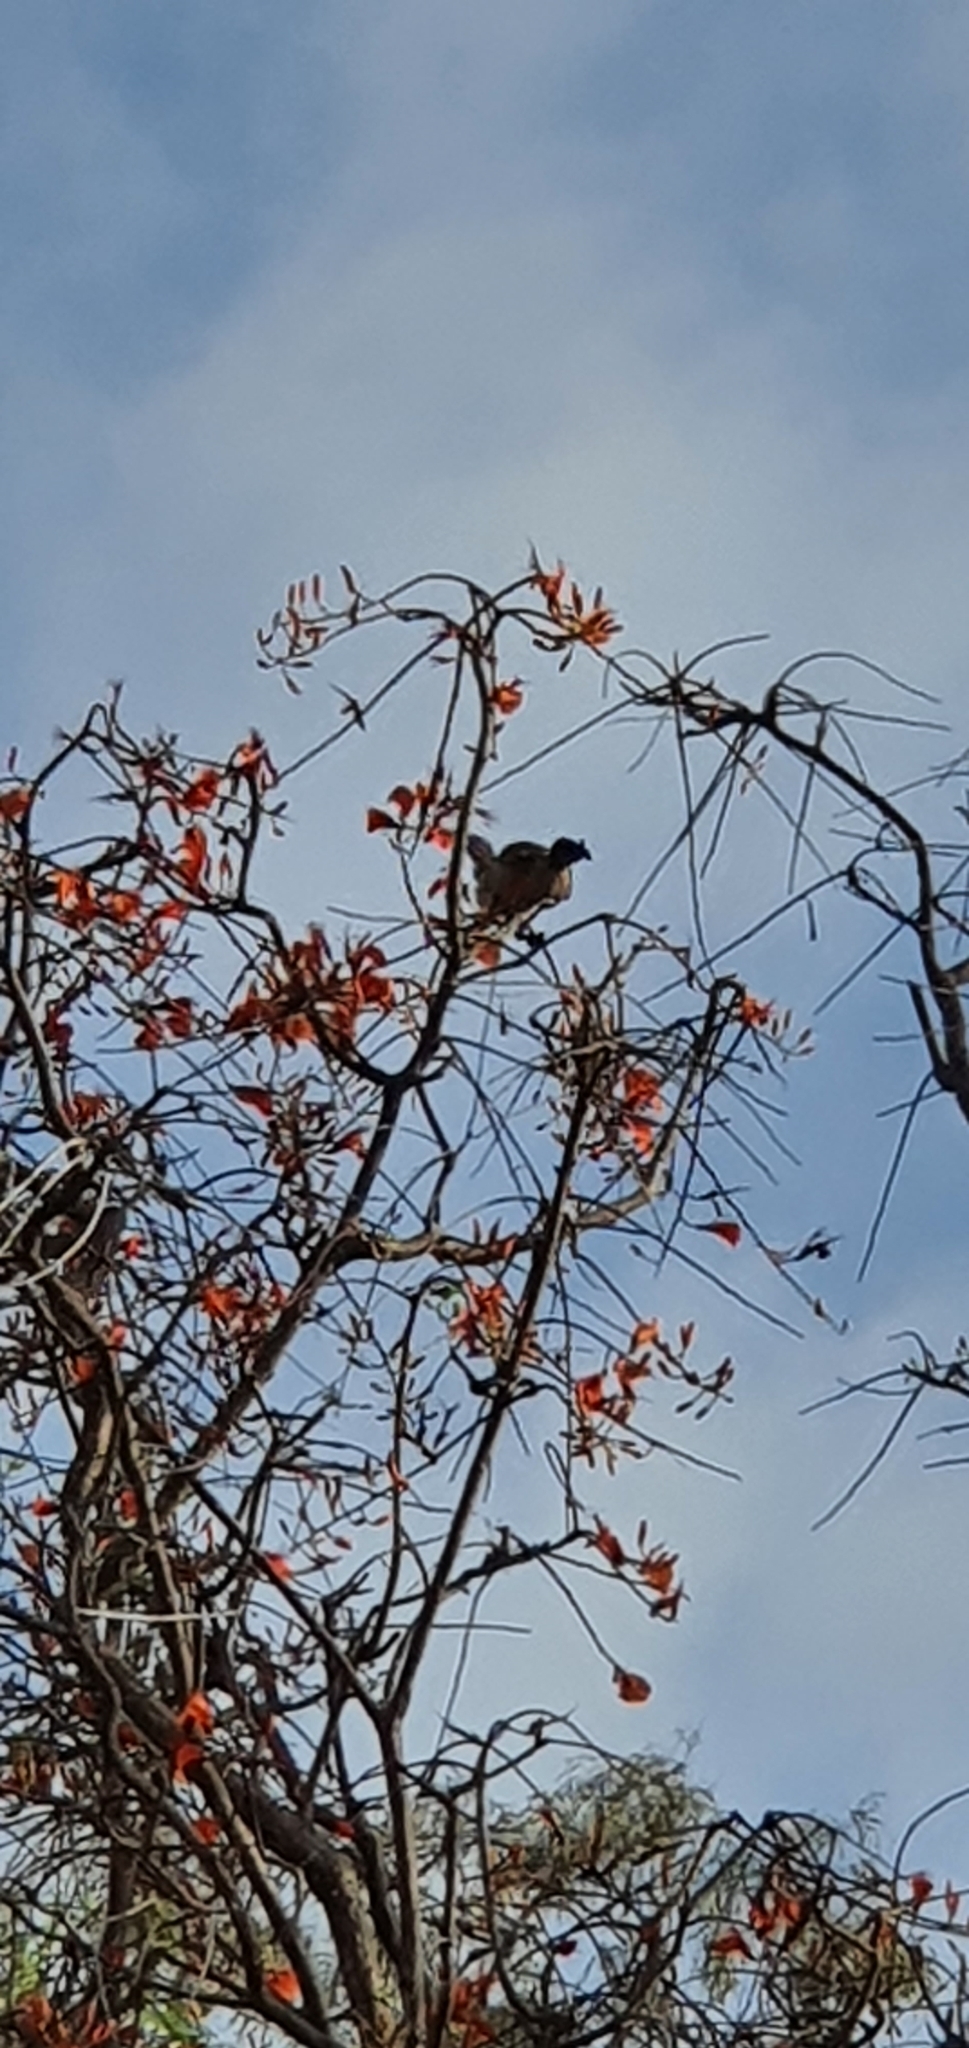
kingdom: Animalia
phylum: Chordata
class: Aves
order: Passeriformes
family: Meliphagidae
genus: Philemon
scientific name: Philemon corniculatus
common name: Noisy friarbird
